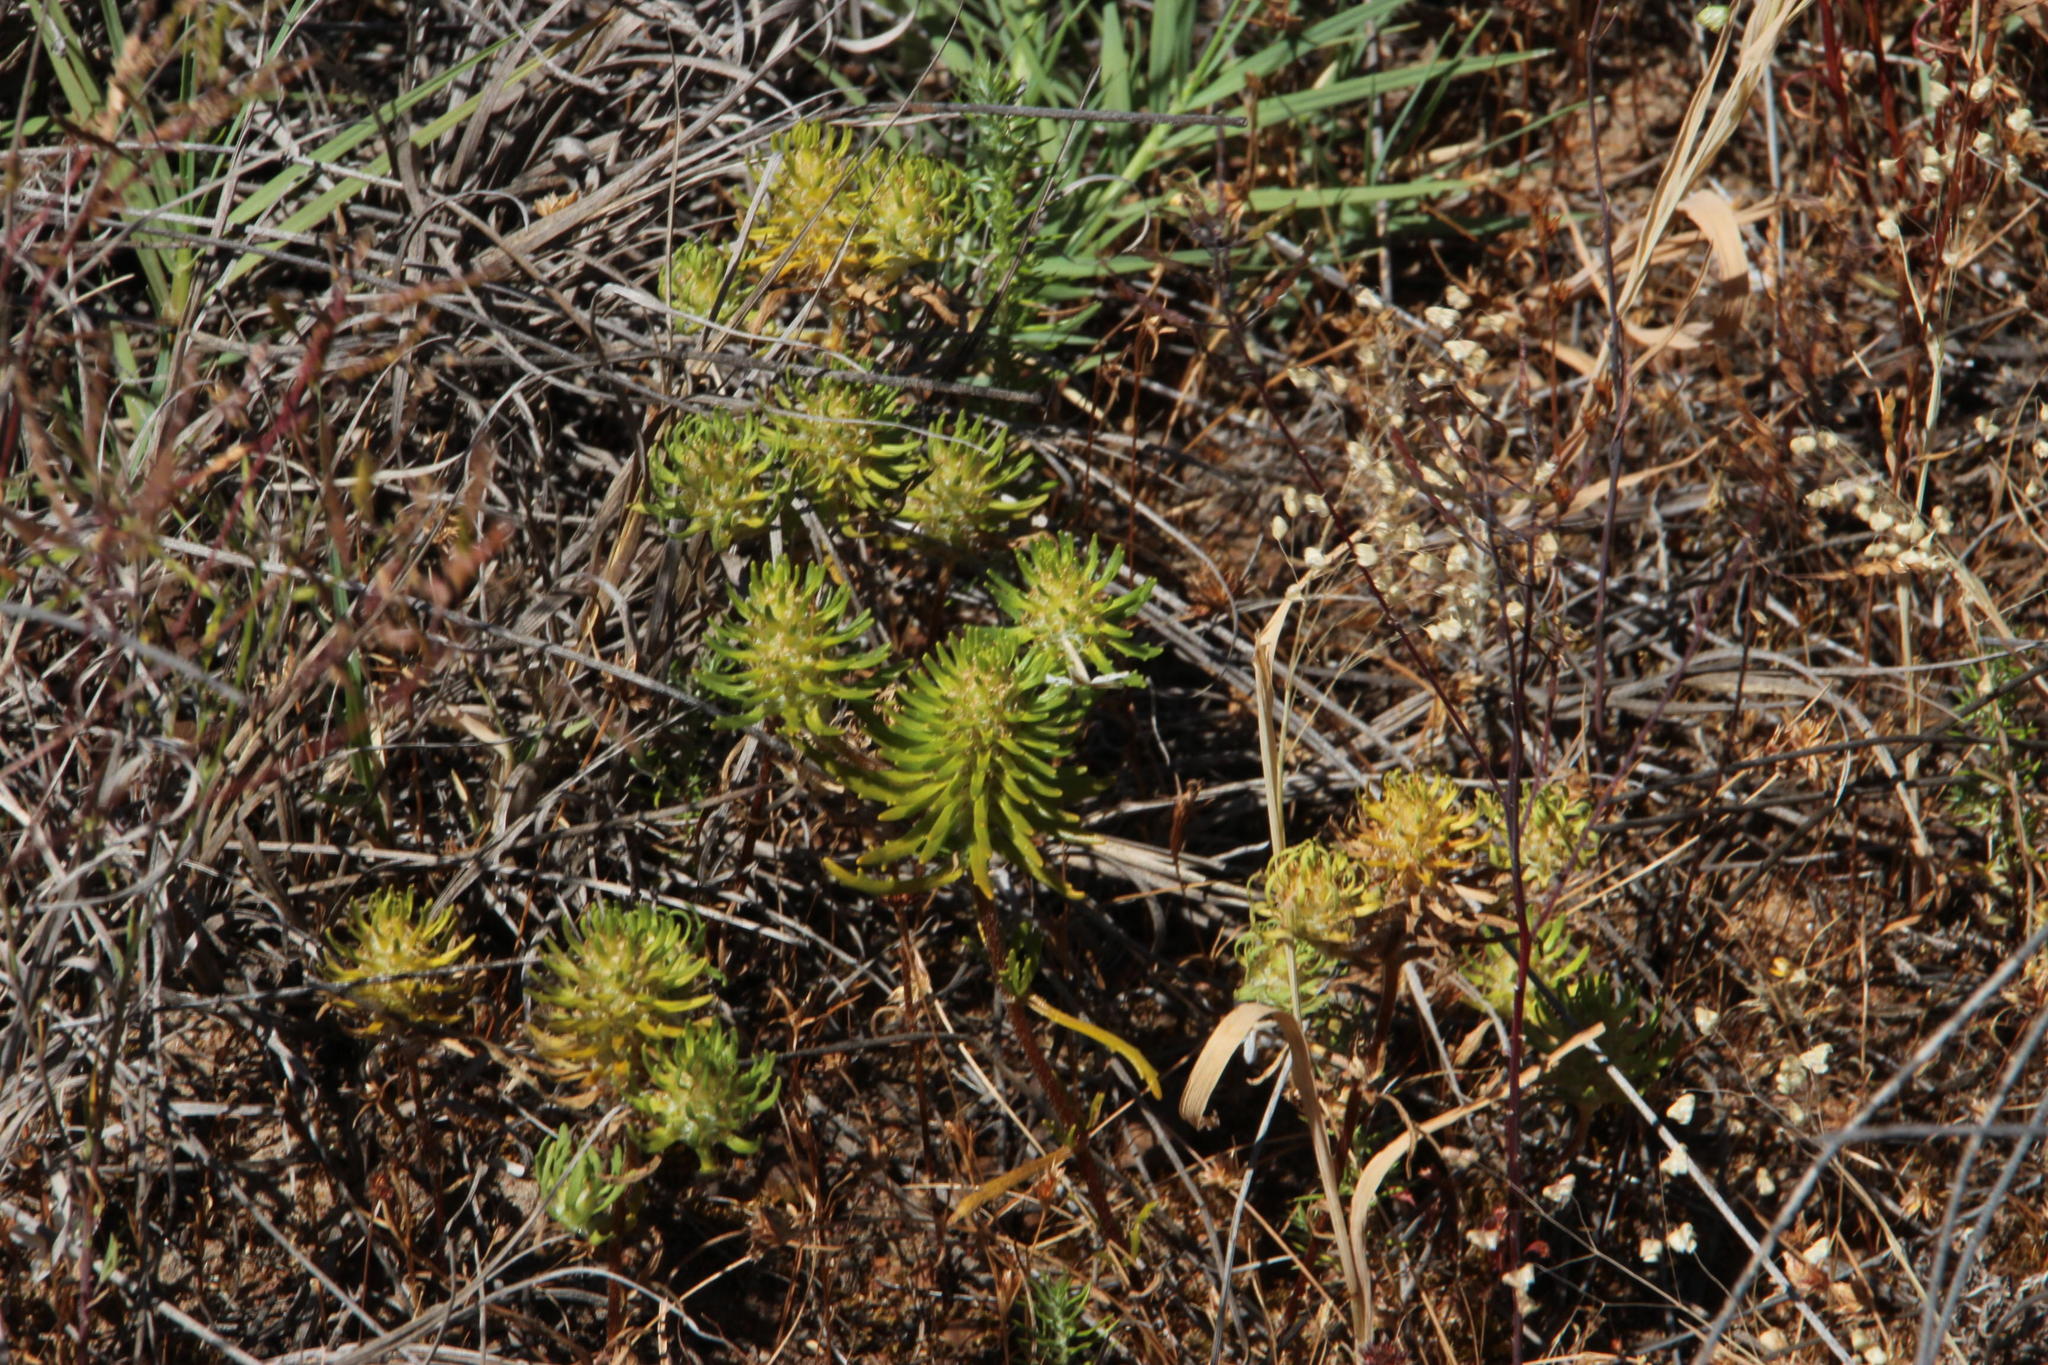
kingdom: Plantae
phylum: Tracheophyta
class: Magnoliopsida
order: Lamiales
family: Scrophulariaceae
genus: Dischisma
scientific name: Dischisma capitatum
